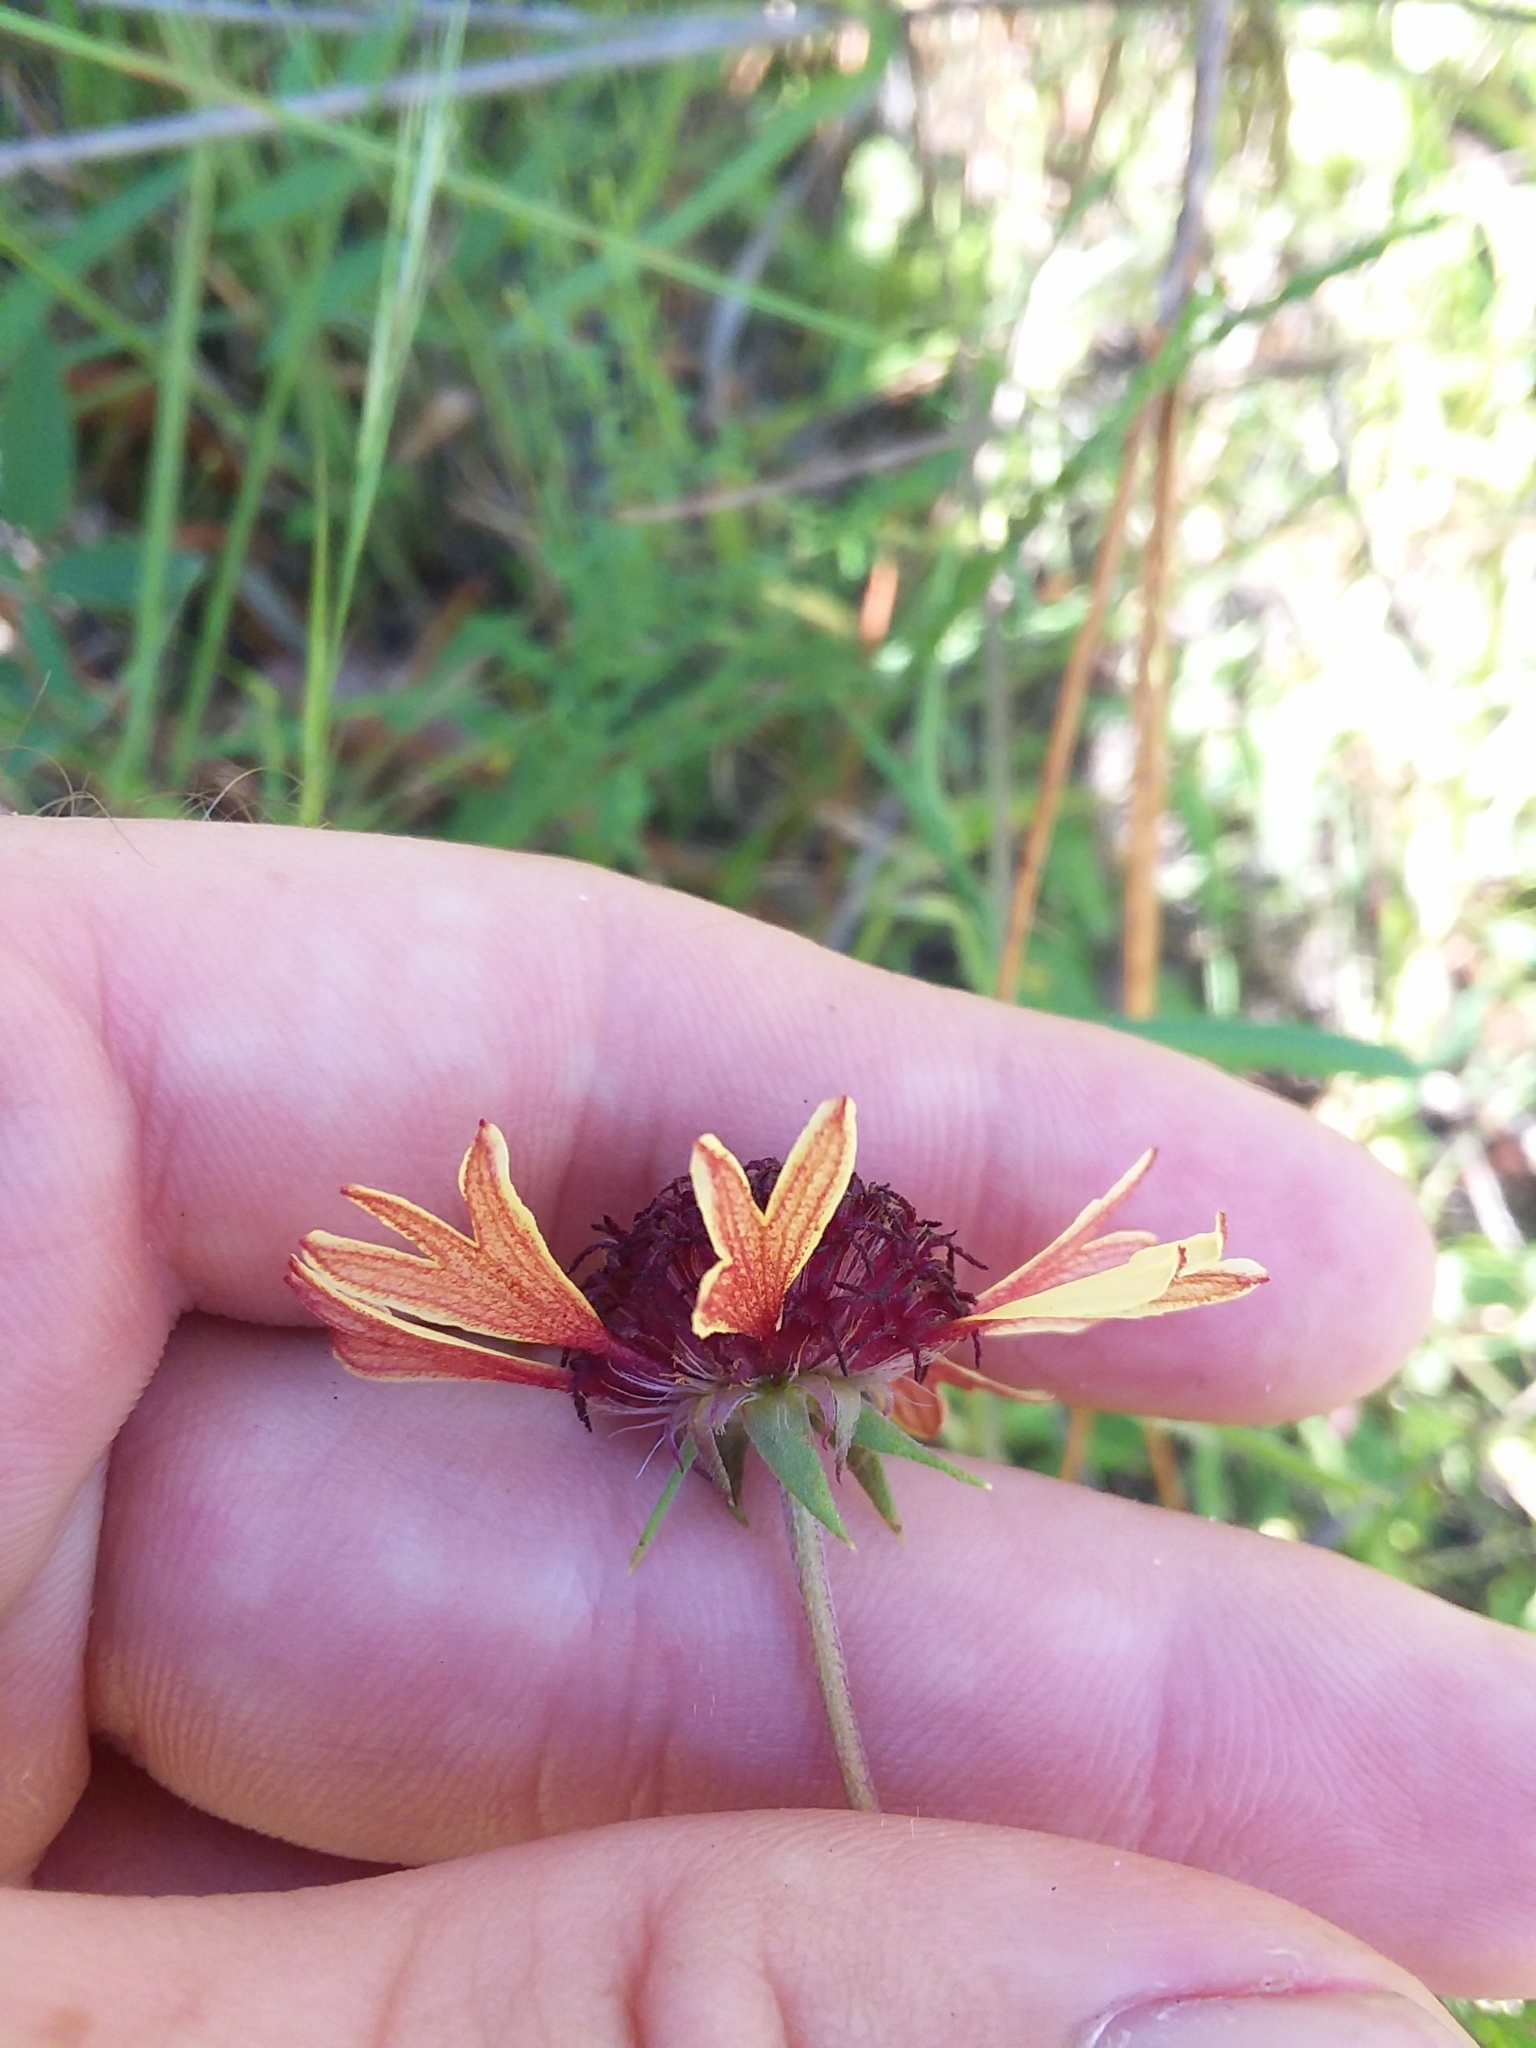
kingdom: Plantae
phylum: Tracheophyta
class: Magnoliopsida
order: Asterales
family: Asteraceae
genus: Gaillardia
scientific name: Gaillardia aestivalis
